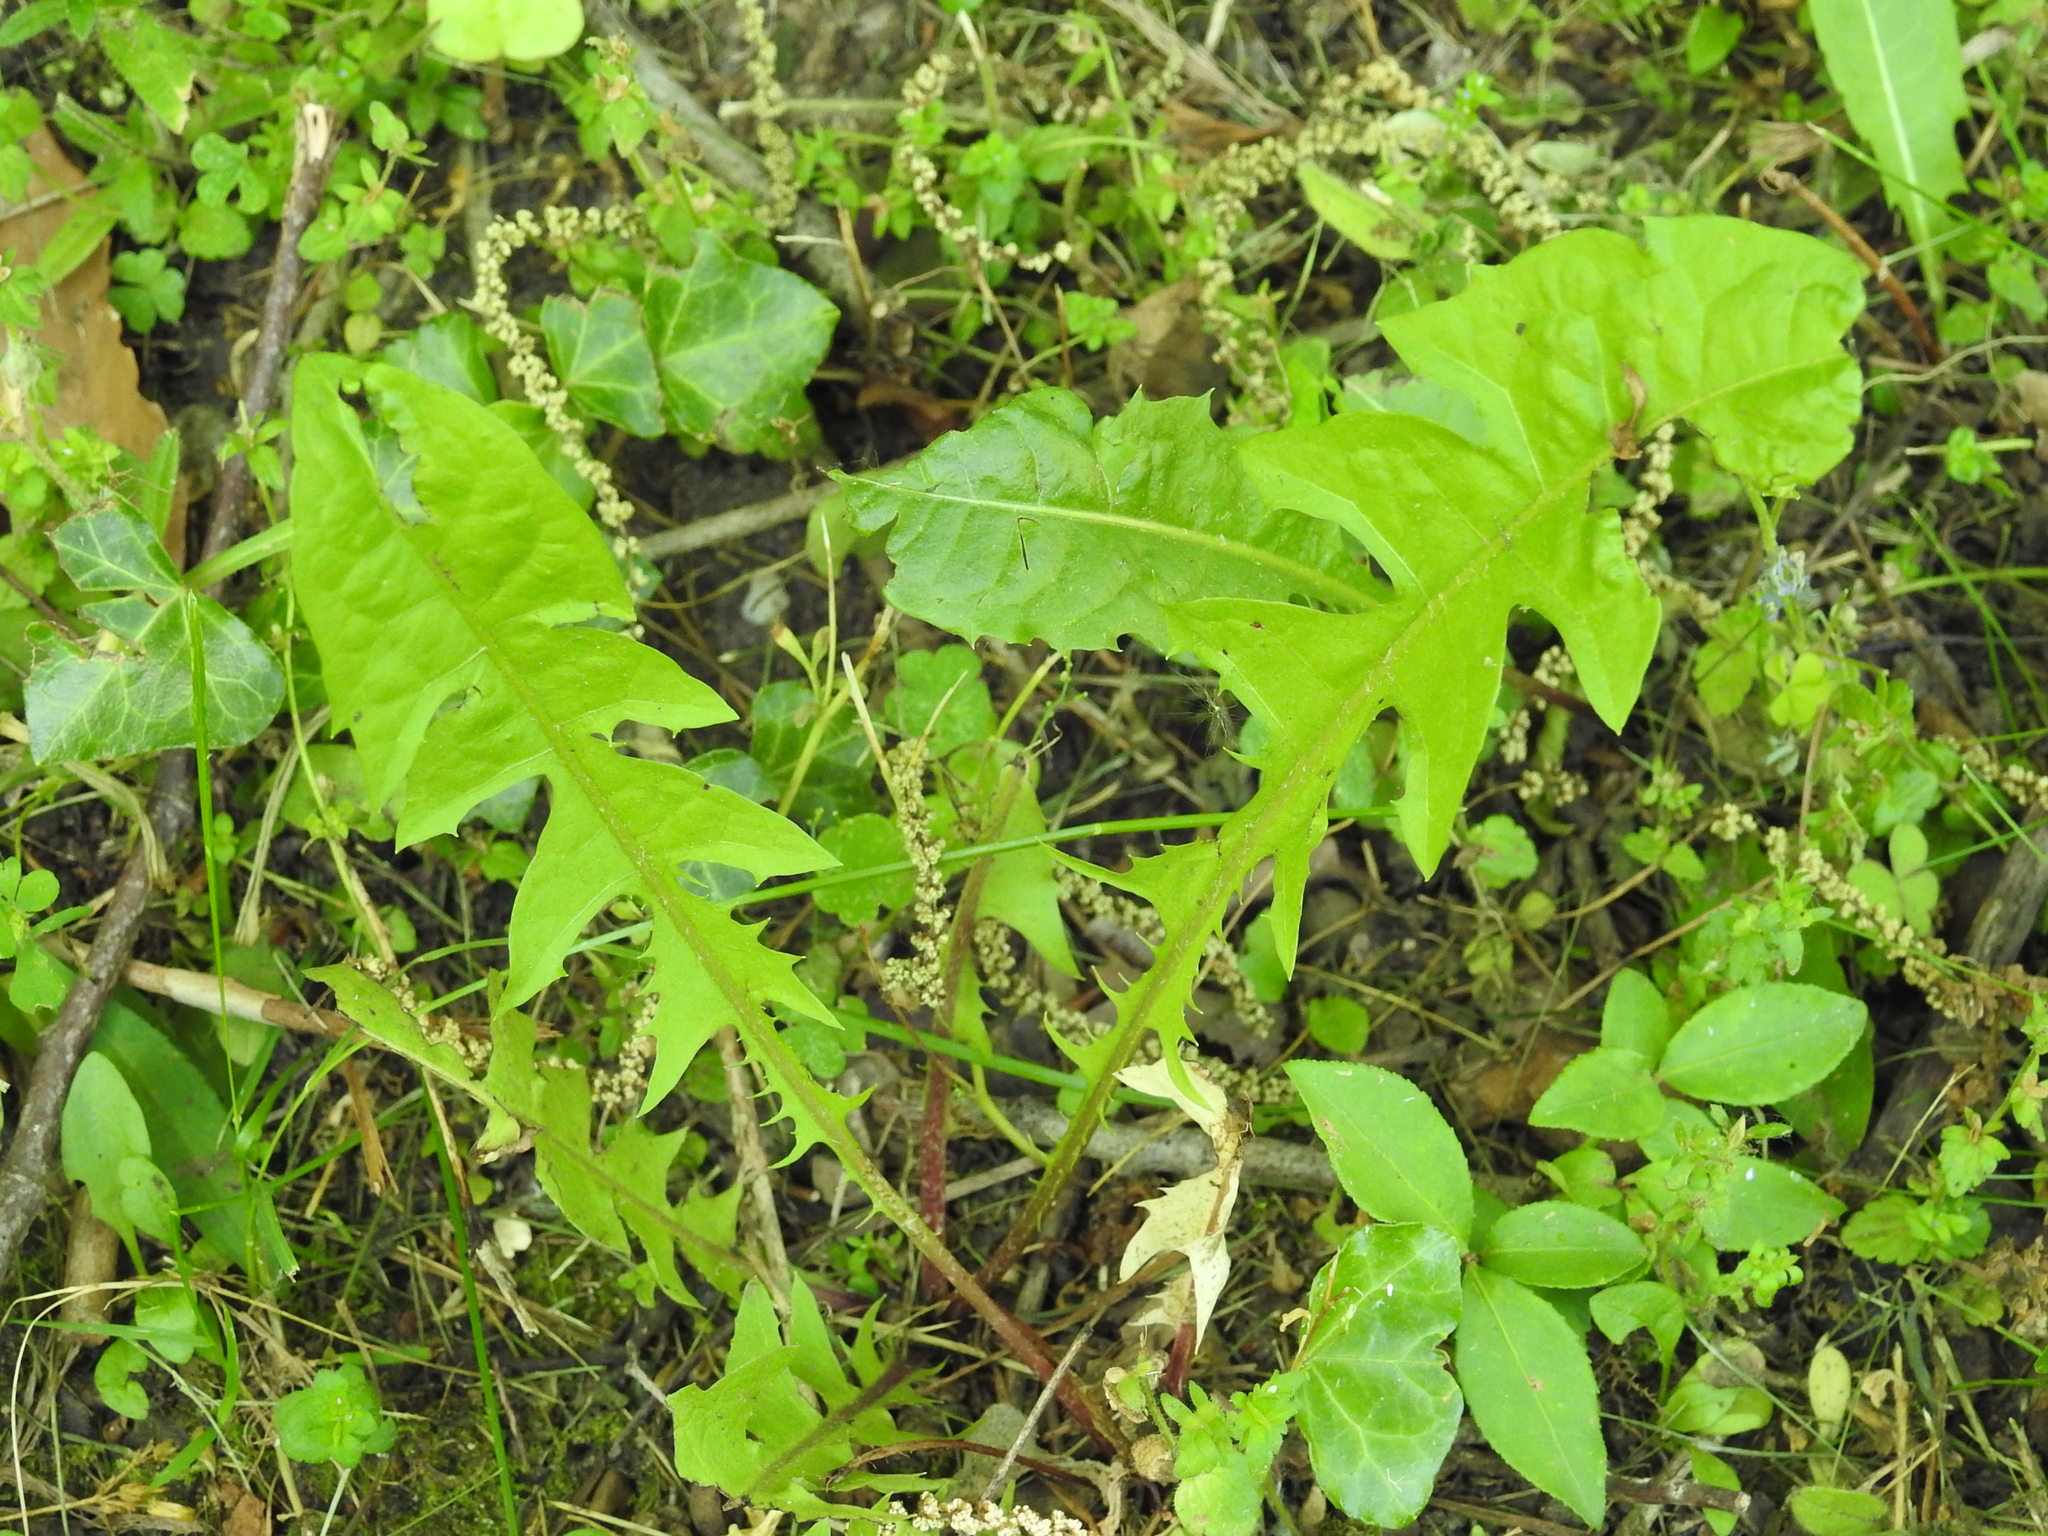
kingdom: Plantae
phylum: Tracheophyta
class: Magnoliopsida
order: Asterales
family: Asteraceae
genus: Taraxacum
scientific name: Taraxacum officinale
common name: Common dandelion
